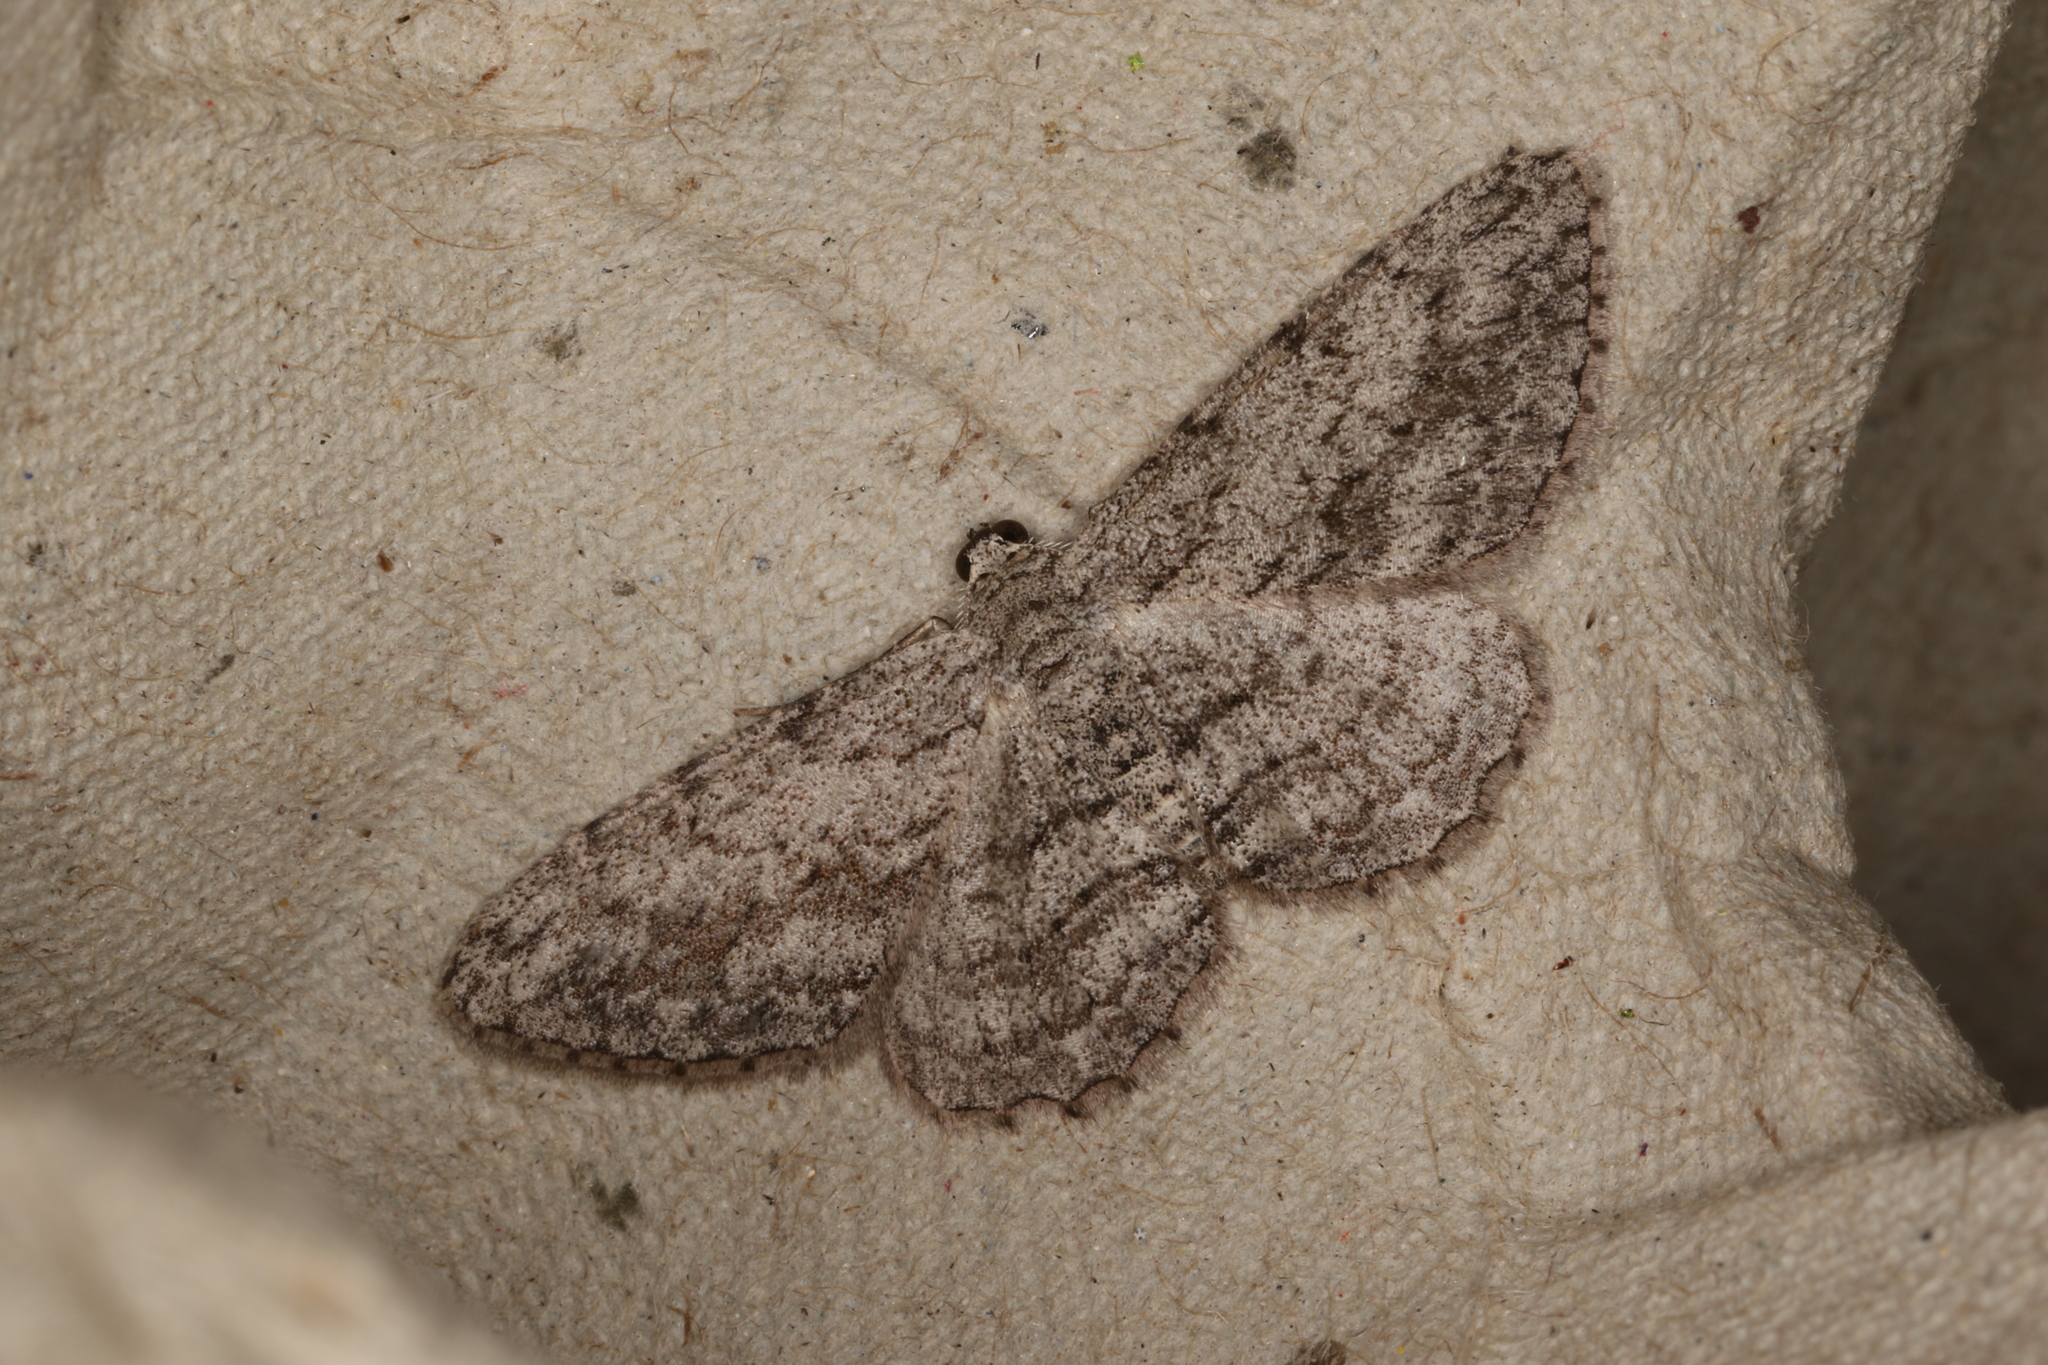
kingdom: Animalia
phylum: Arthropoda
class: Insecta
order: Lepidoptera
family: Geometridae
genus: Didymoctenia
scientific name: Didymoctenia exsuperata
